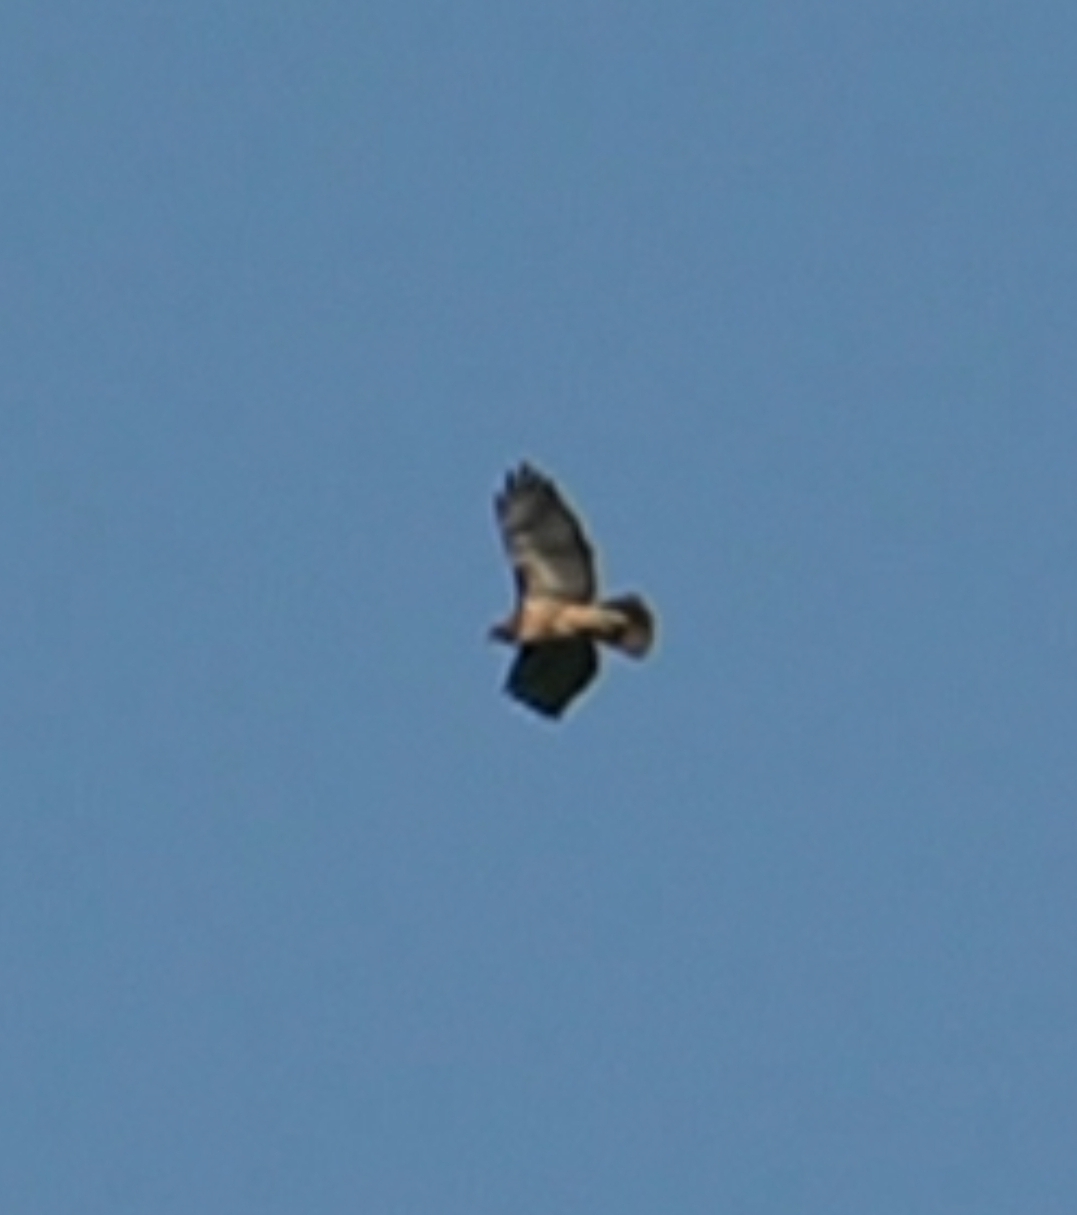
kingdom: Animalia
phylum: Chordata
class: Aves
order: Accipitriformes
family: Accipitridae
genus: Buteo
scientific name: Buteo jamaicensis
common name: Red-tailed hawk
